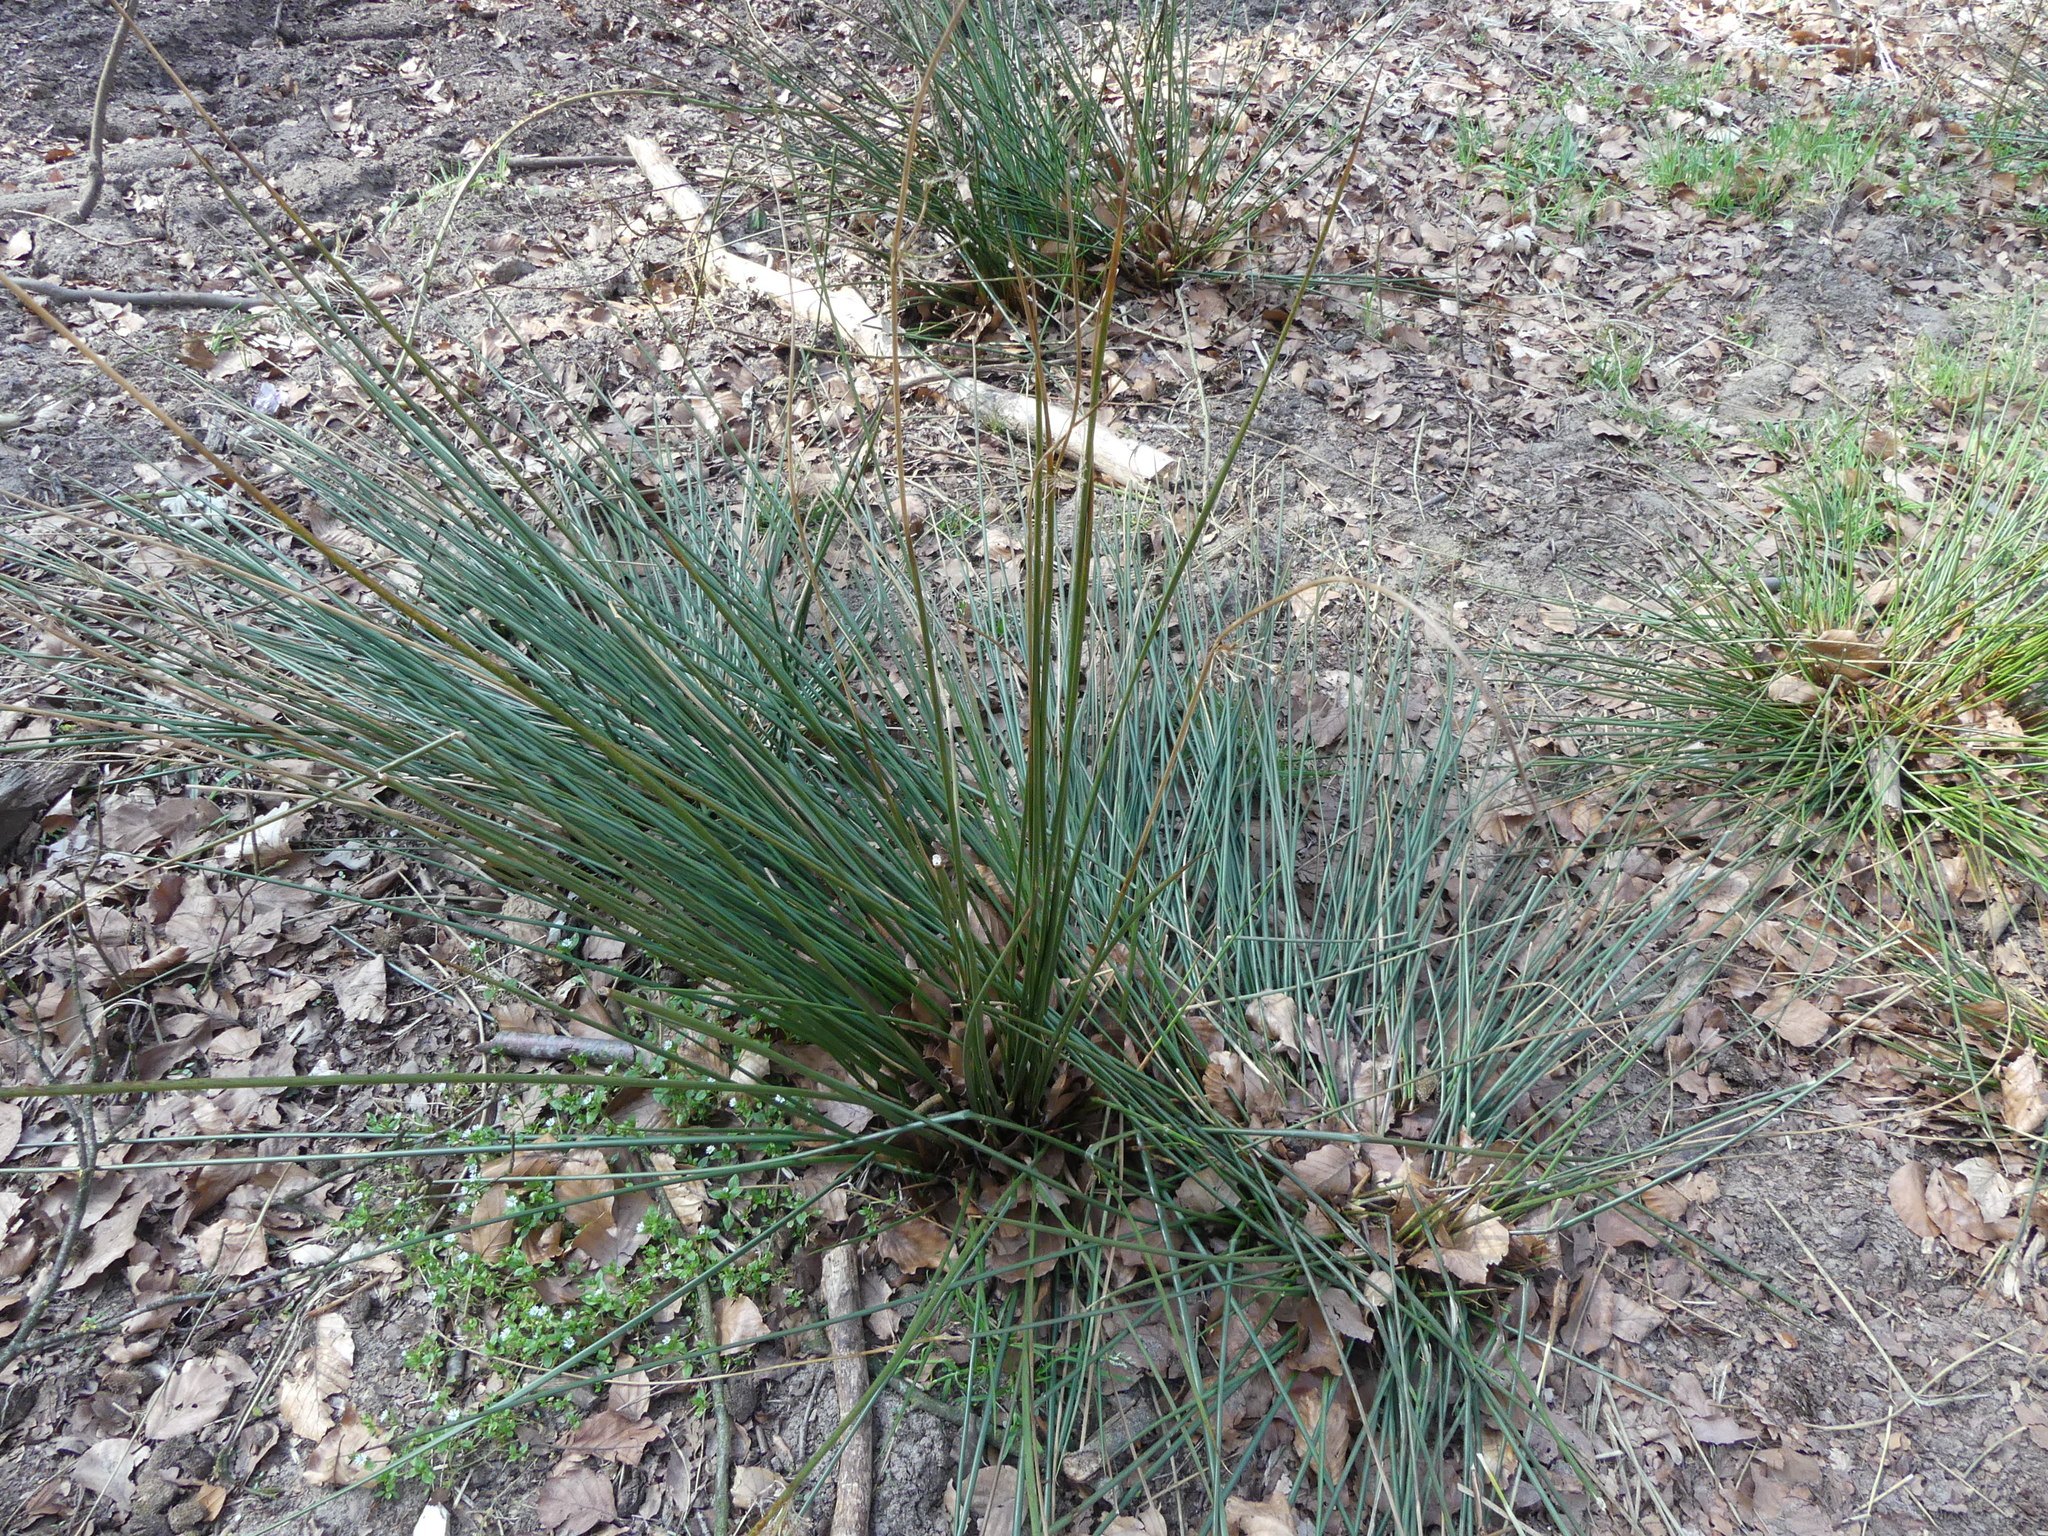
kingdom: Plantae
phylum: Tracheophyta
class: Liliopsida
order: Poales
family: Juncaceae
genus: Juncus
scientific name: Juncus effusus
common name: Soft rush
